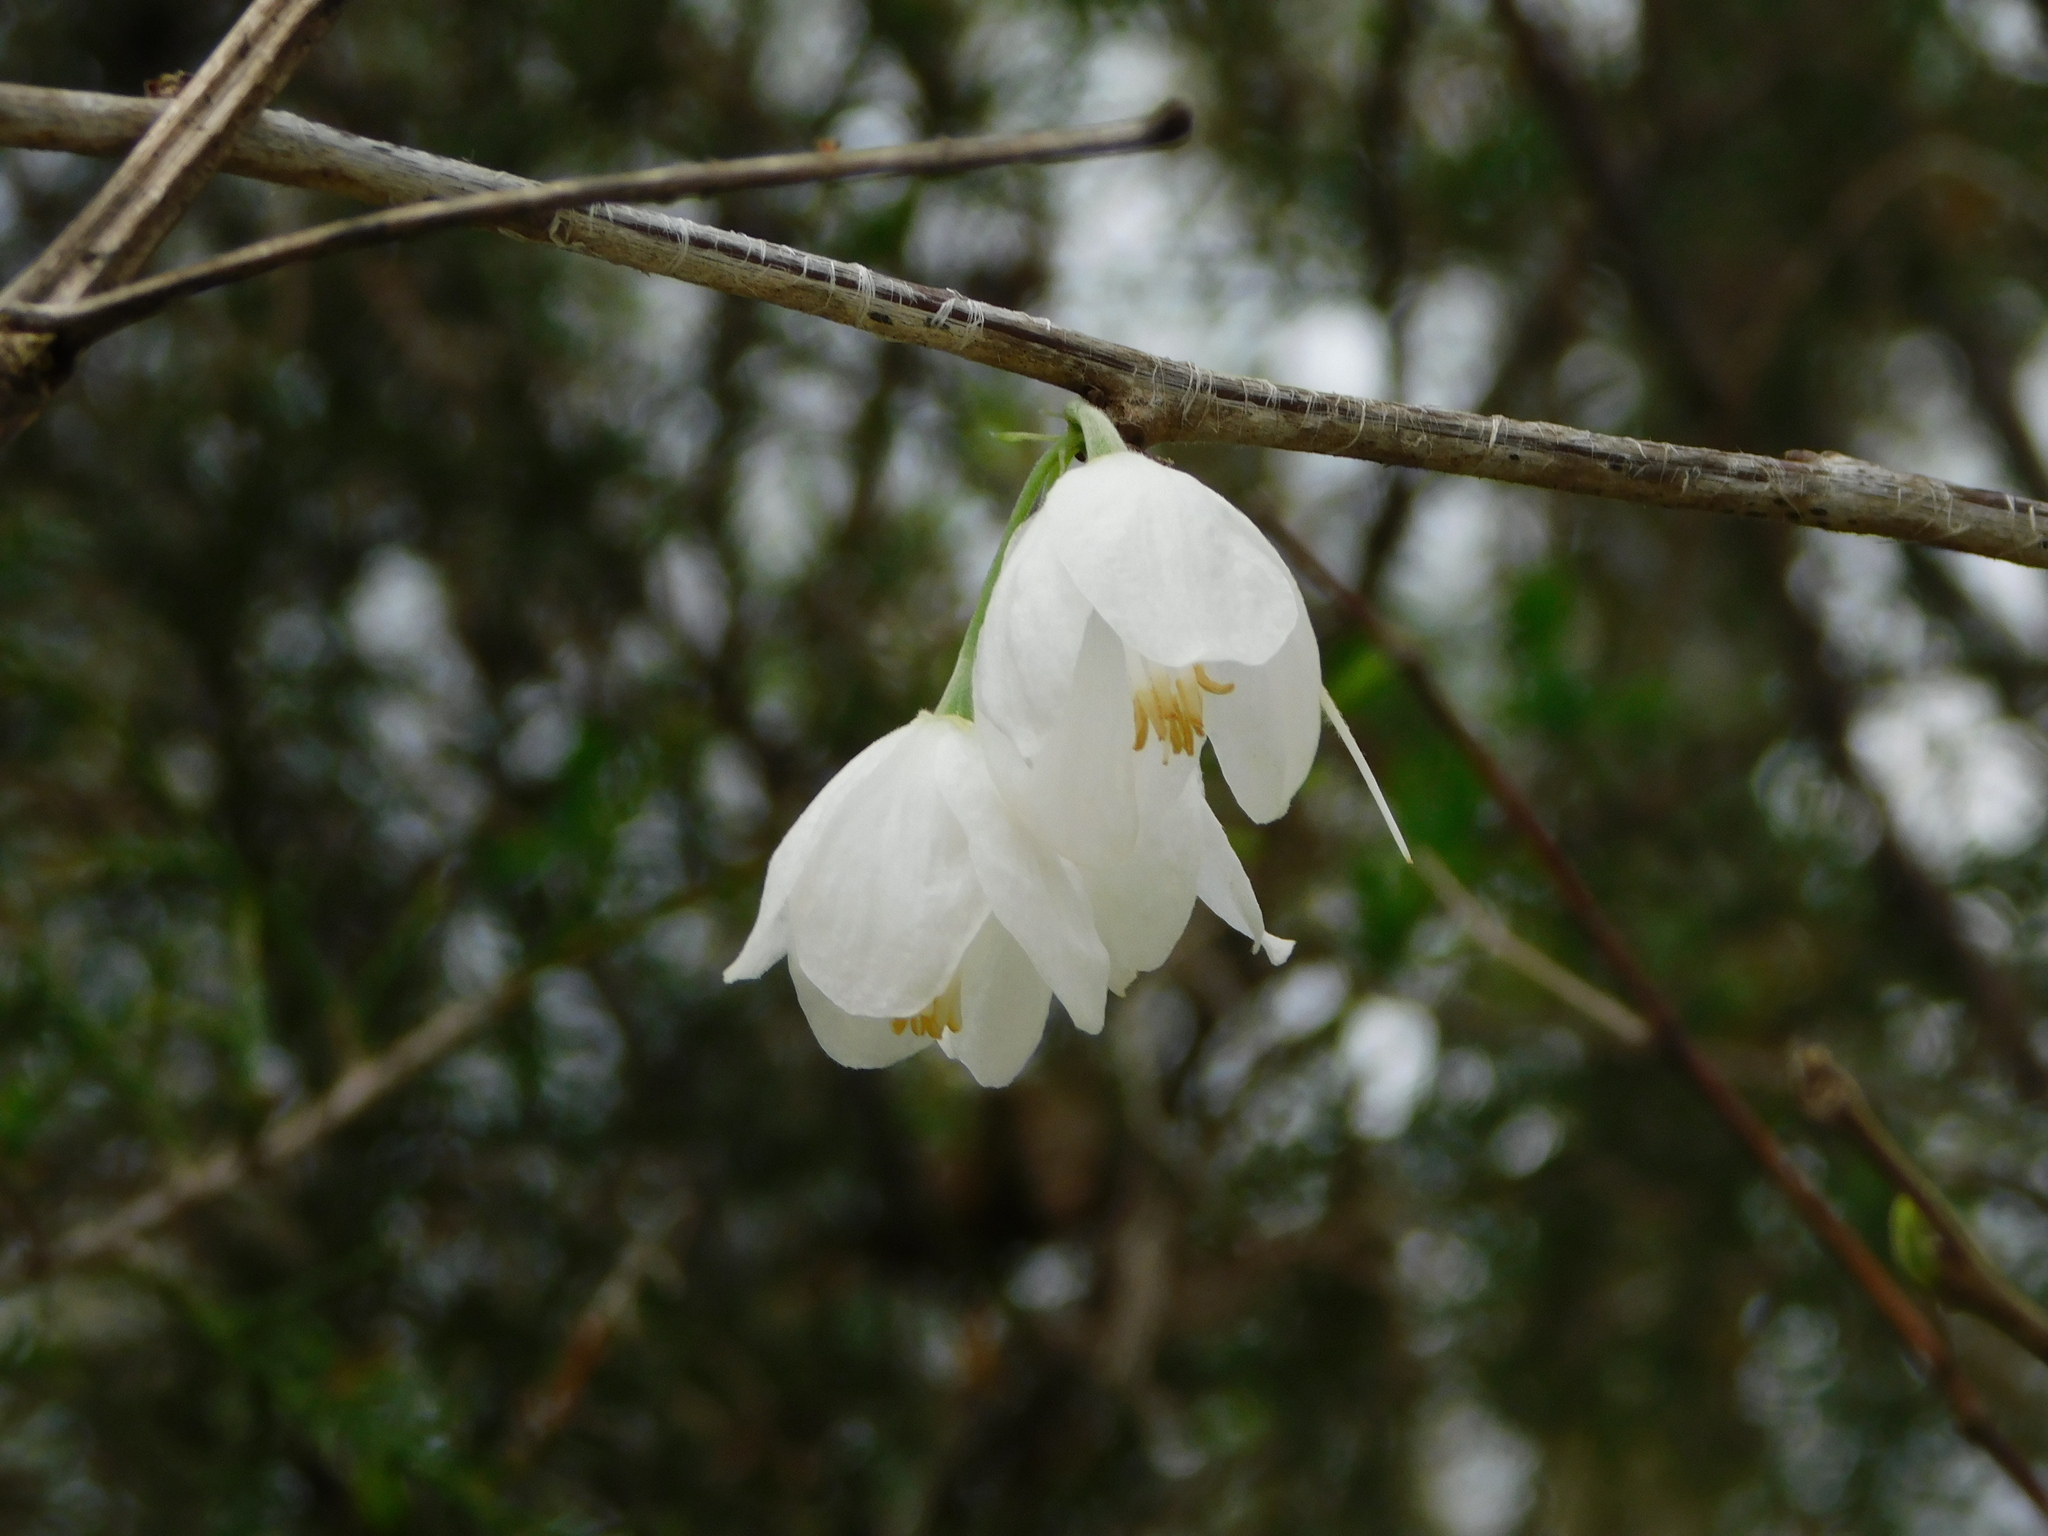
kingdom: Plantae
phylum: Tracheophyta
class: Magnoliopsida
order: Ericales
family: Styracaceae
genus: Halesia
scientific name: Halesia diptera
